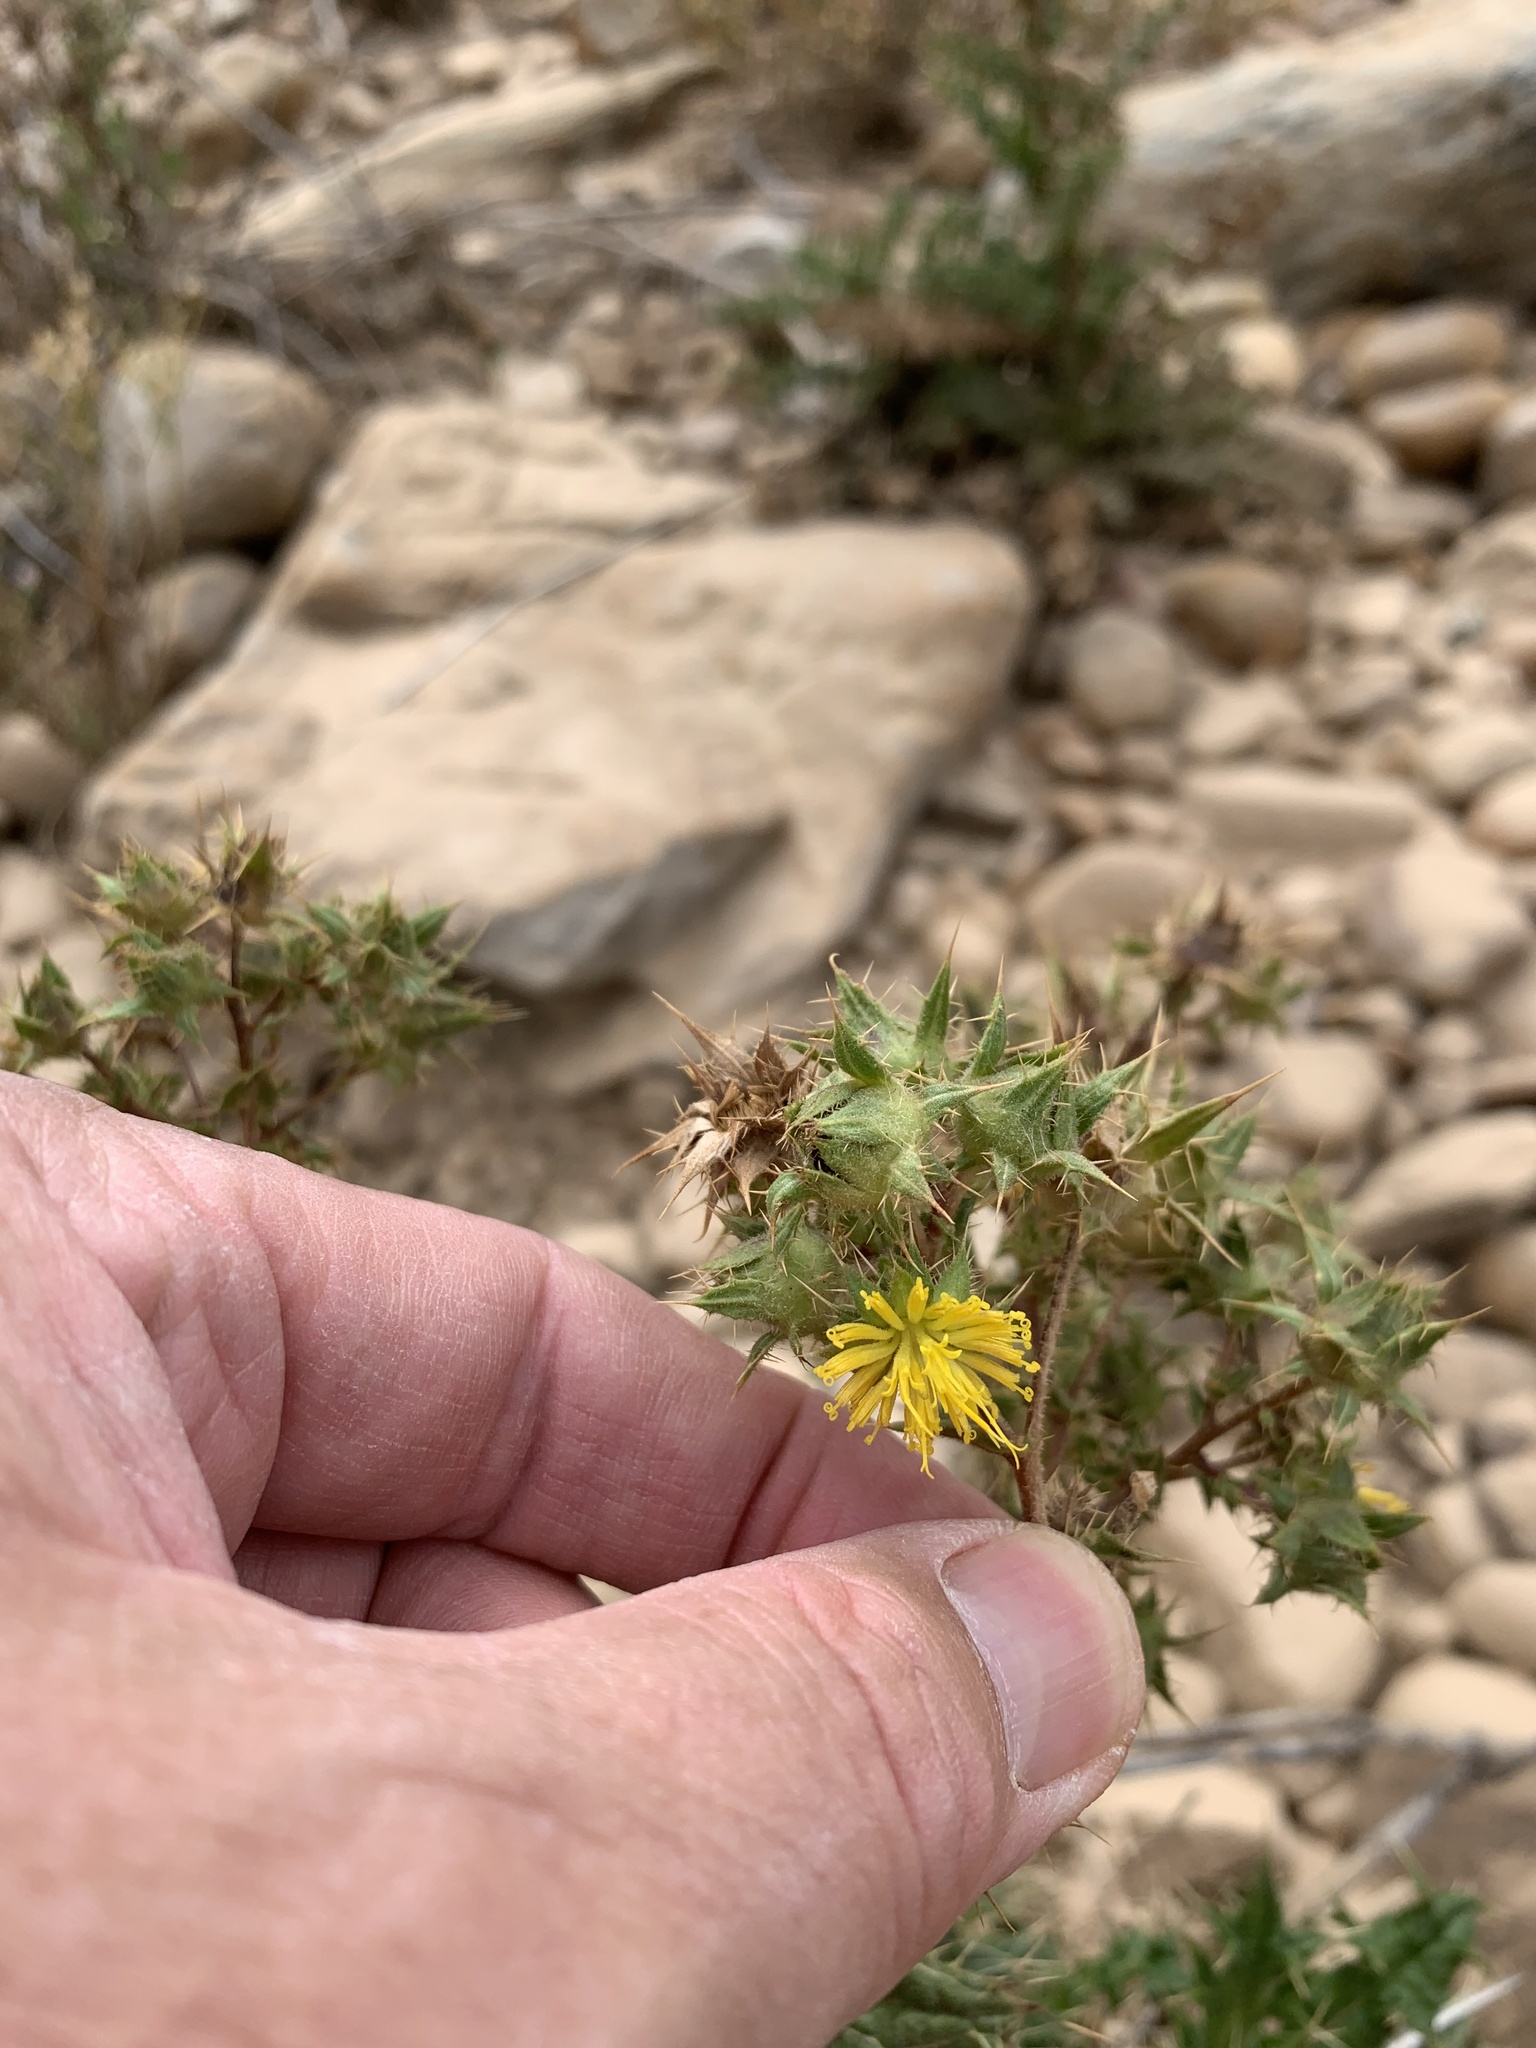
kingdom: Plantae
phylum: Tracheophyta
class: Magnoliopsida
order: Asterales
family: Asteraceae
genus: Berkheya
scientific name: Berkheya onobromoides
